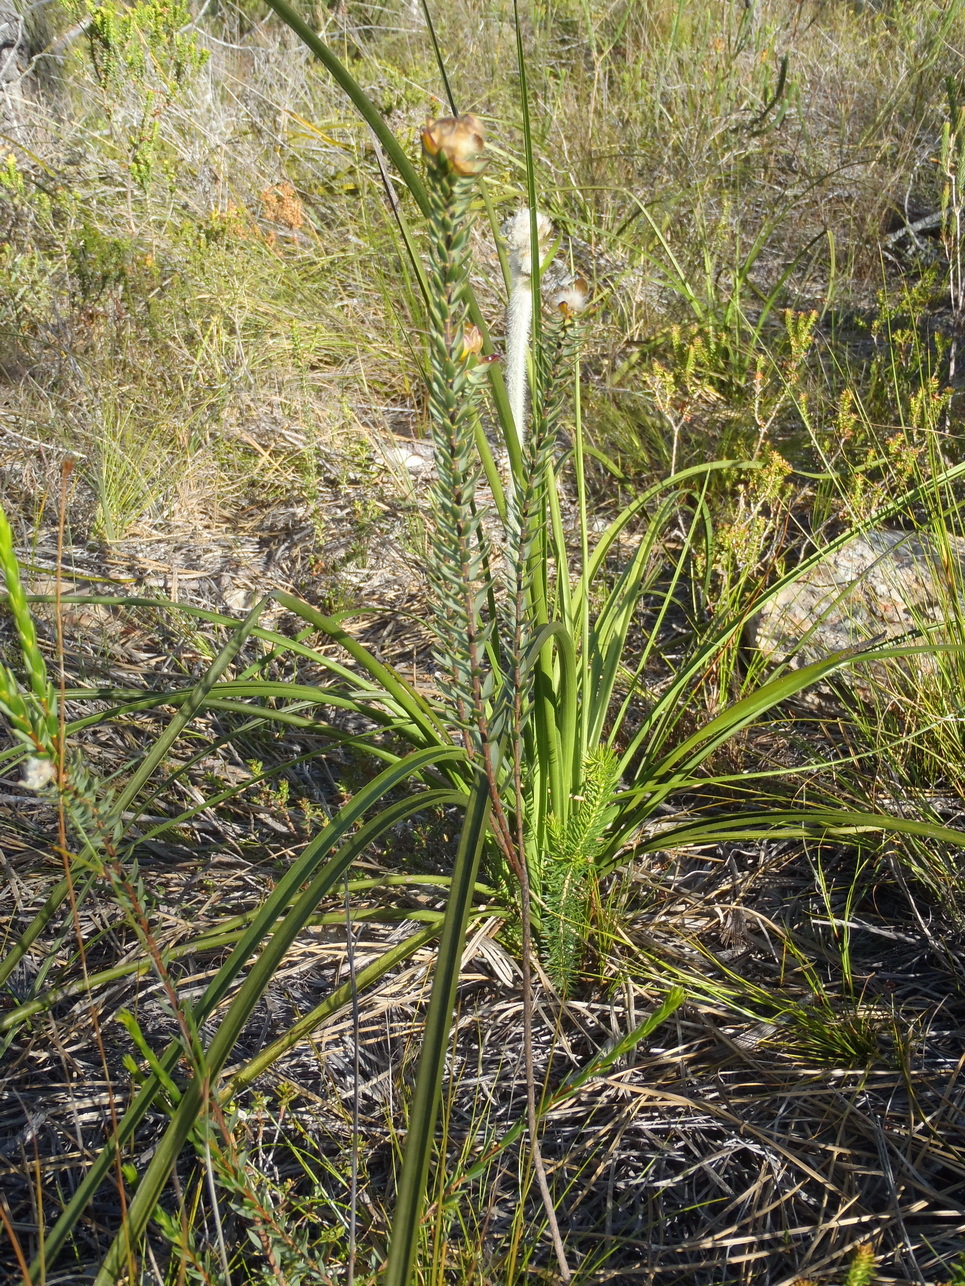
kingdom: Plantae
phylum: Tracheophyta
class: Liliopsida
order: Asparagales
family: Lanariaceae
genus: Lanaria
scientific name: Lanaria lanata
